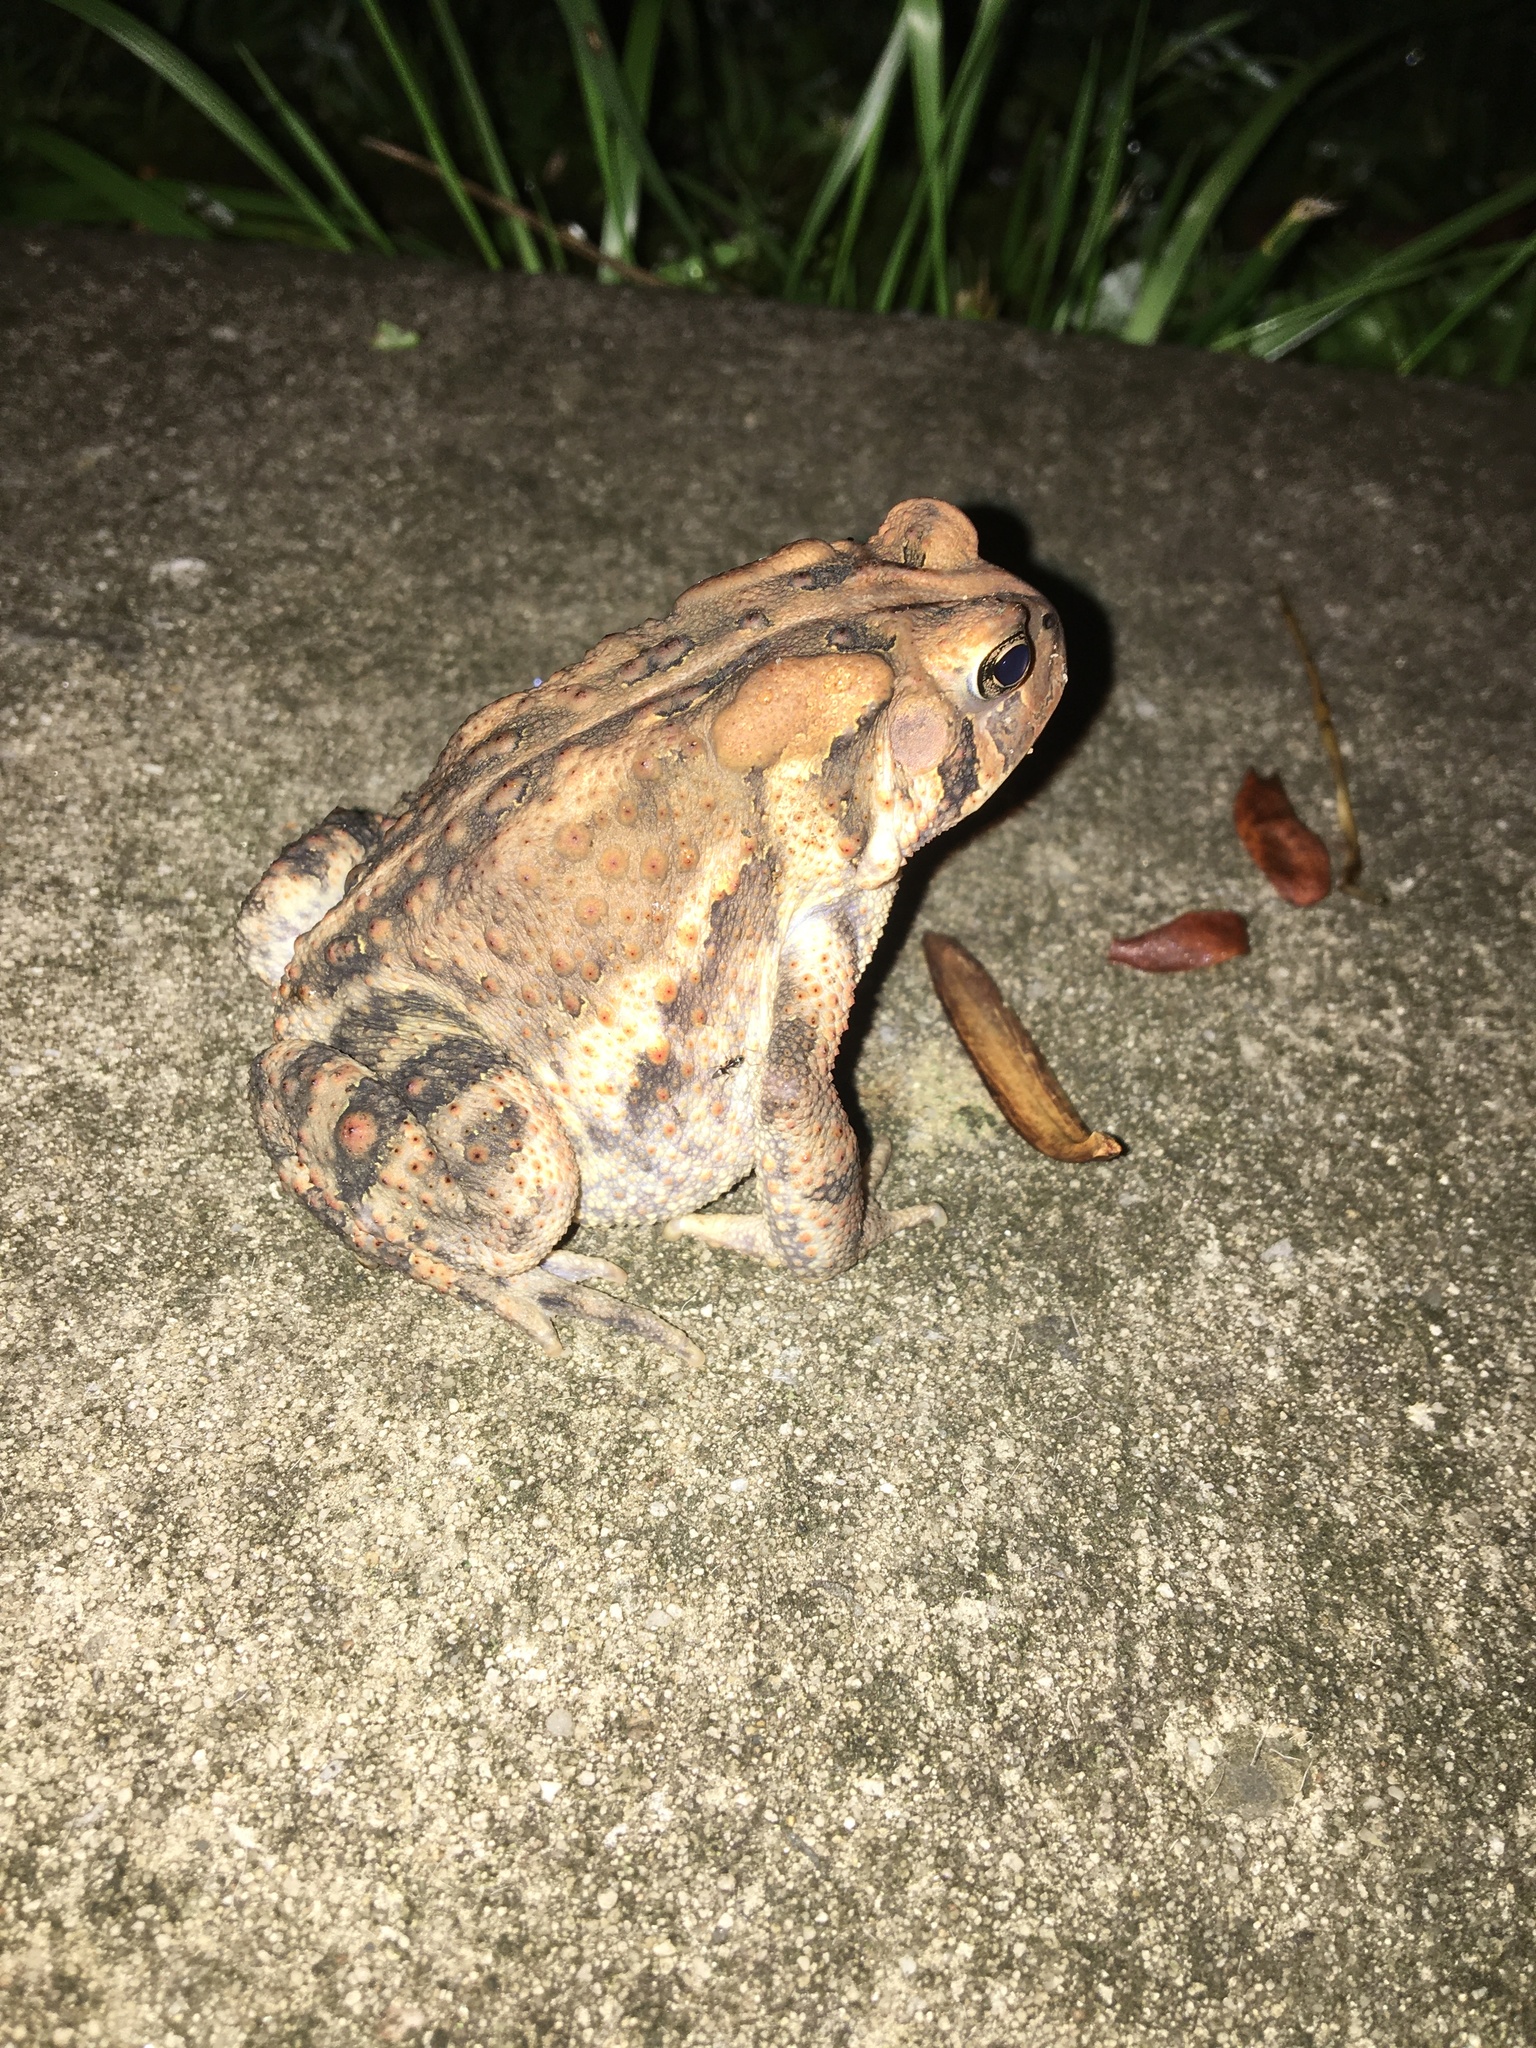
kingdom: Animalia
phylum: Chordata
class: Amphibia
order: Anura
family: Bufonidae
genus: Anaxyrus
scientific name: Anaxyrus americanus
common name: American toad
